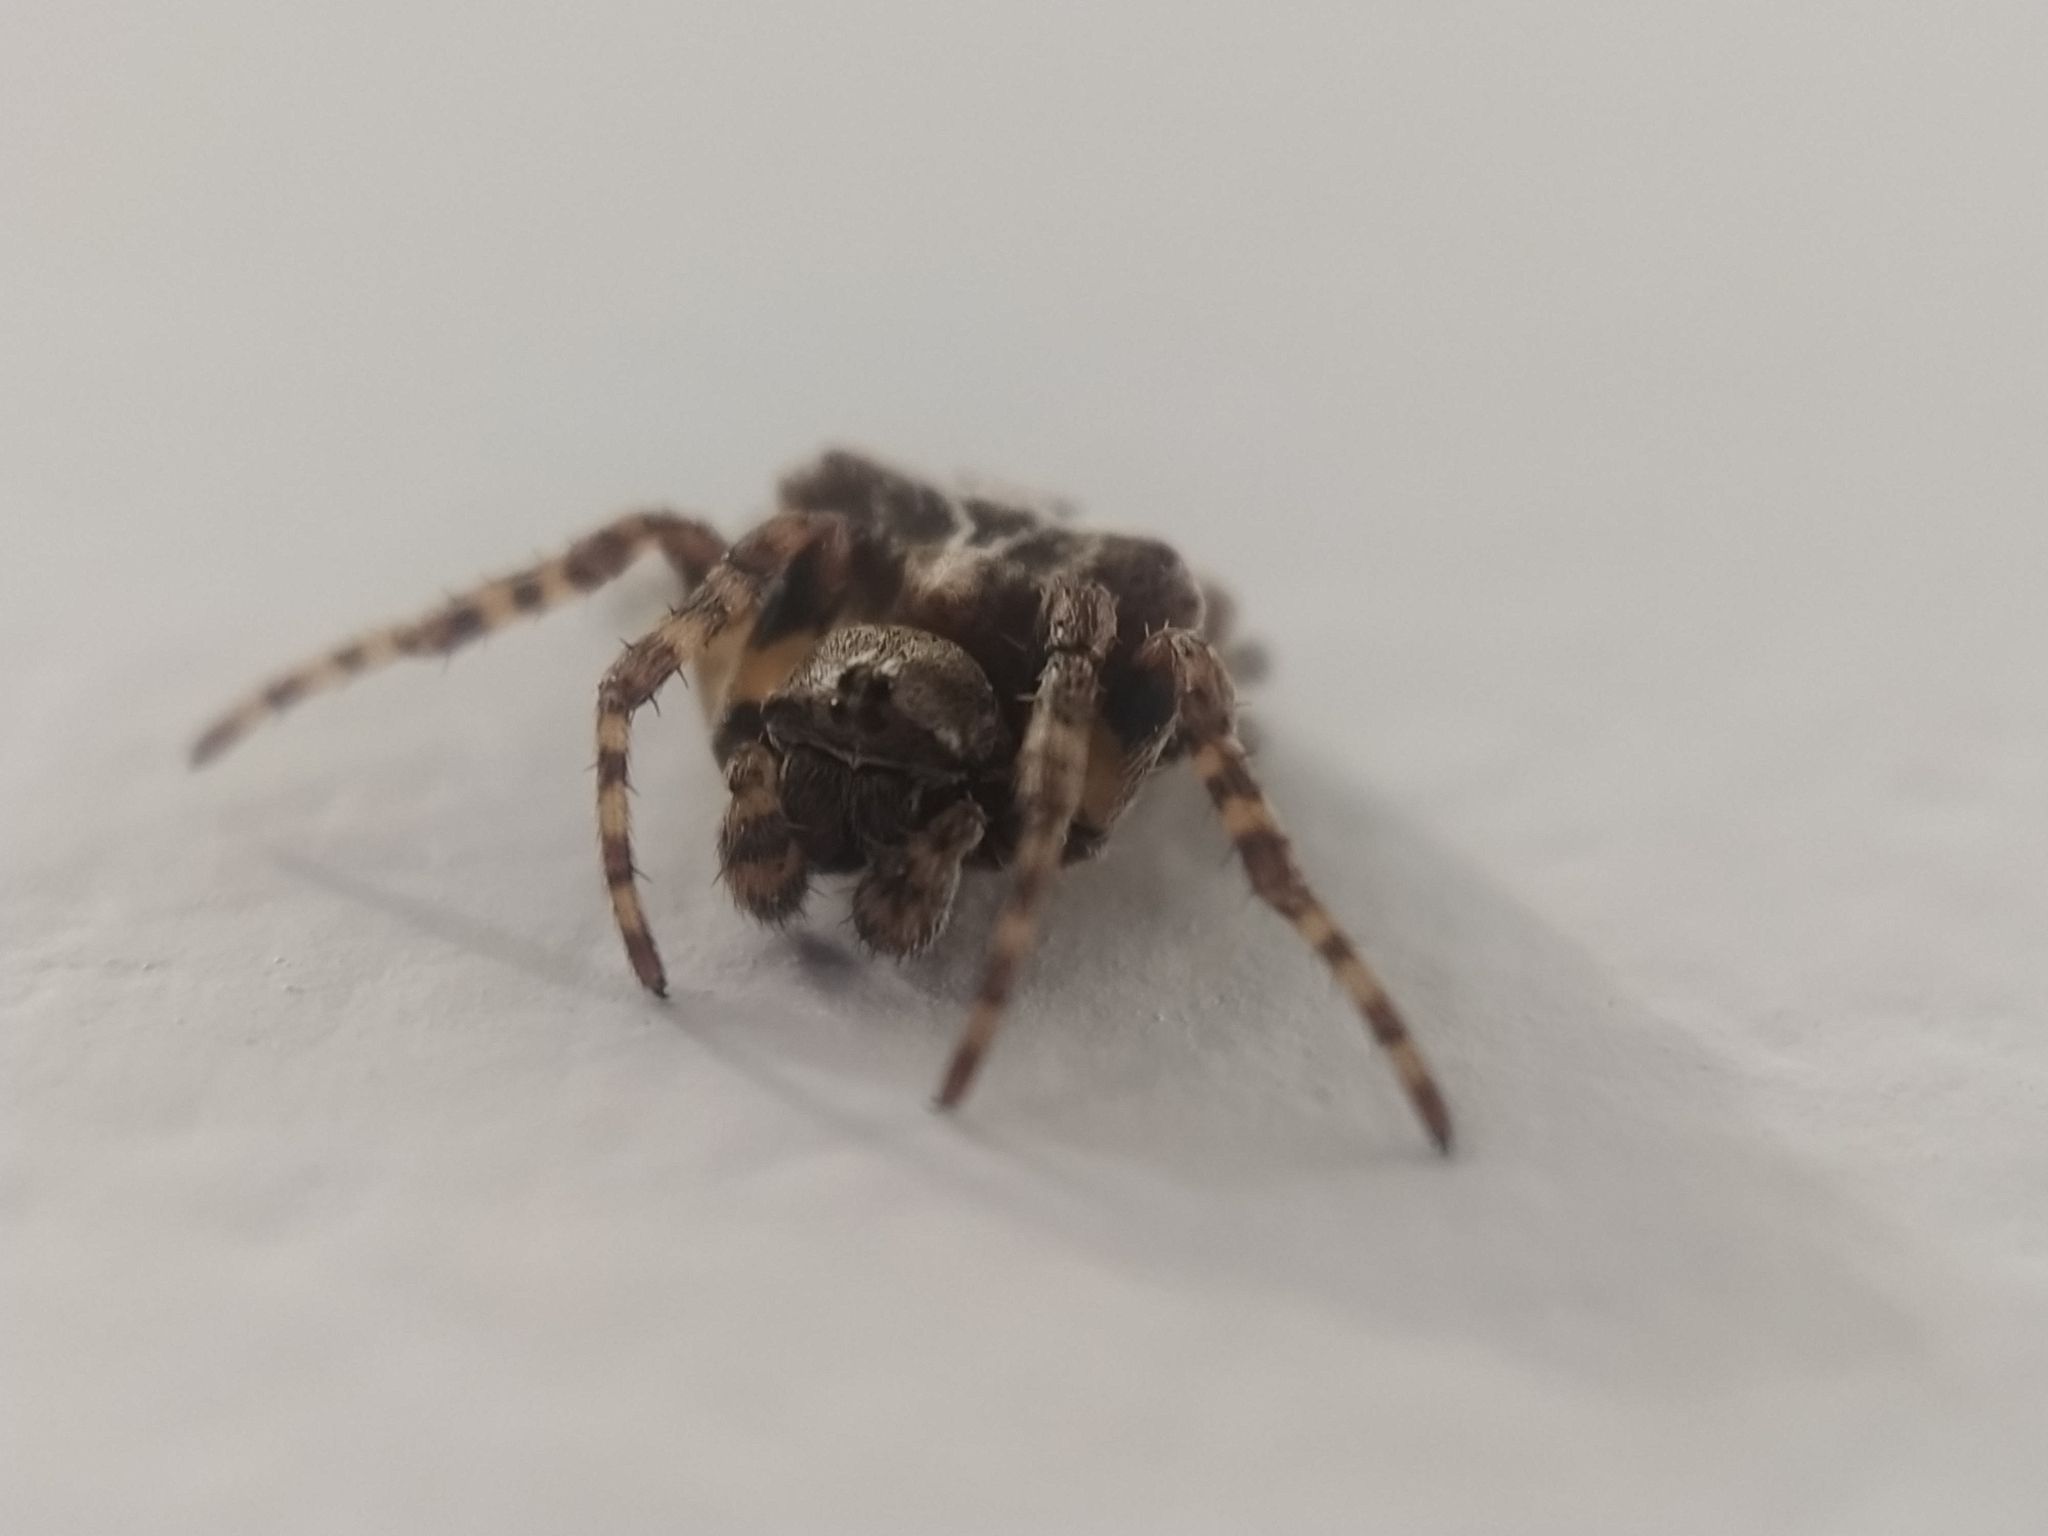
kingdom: Animalia
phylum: Arthropoda
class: Arachnida
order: Araneae
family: Araneidae
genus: Acanthepeira
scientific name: Acanthepeira stellata
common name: Starbellied orbweaver
